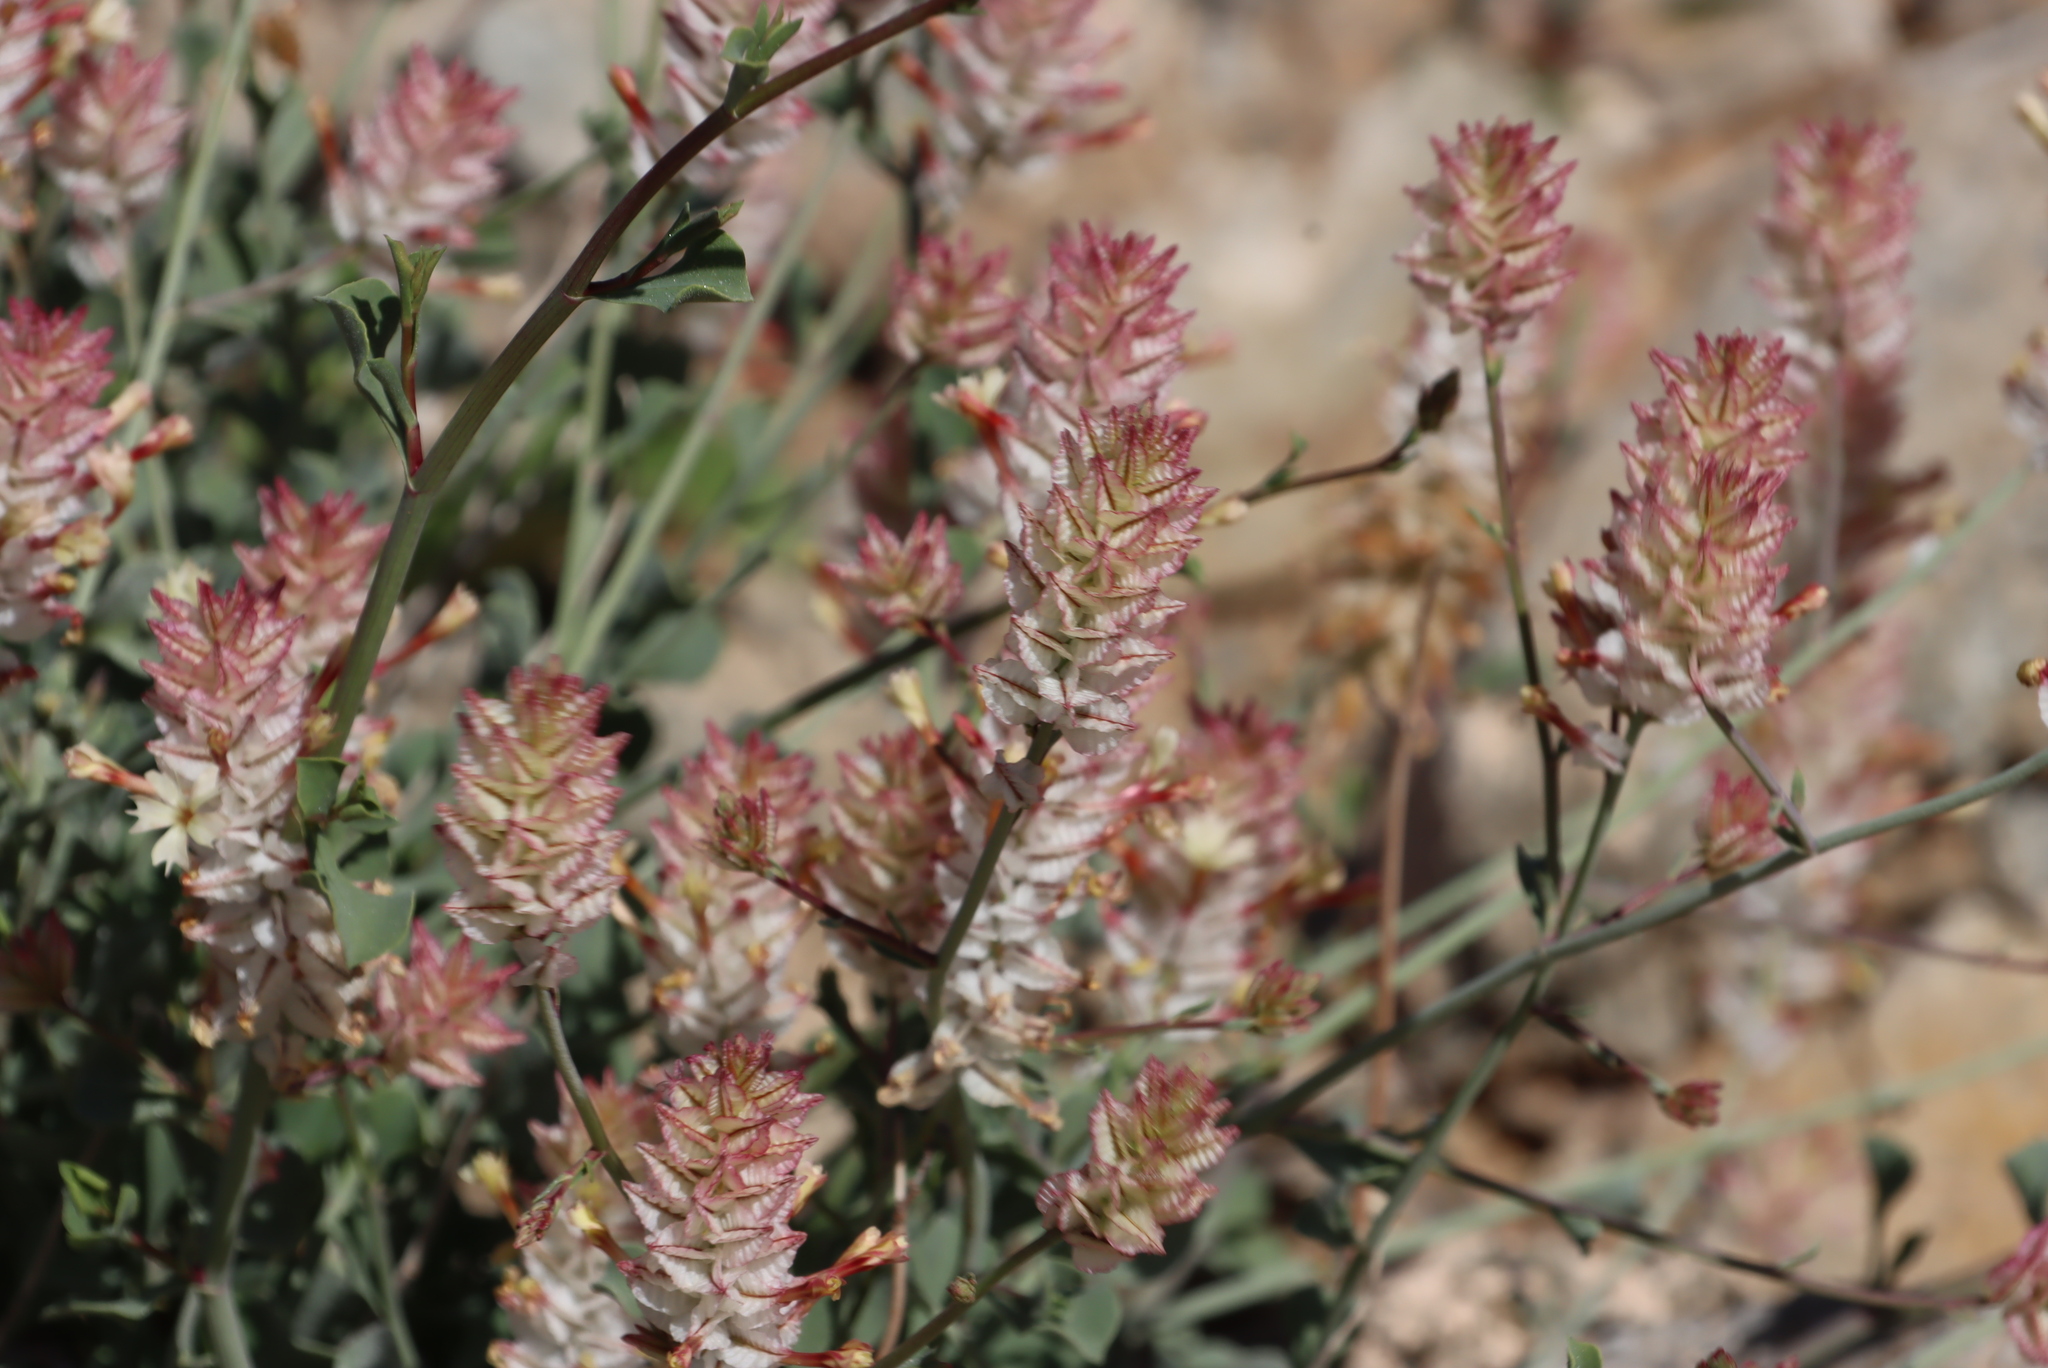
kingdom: Plantae
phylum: Tracheophyta
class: Magnoliopsida
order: Caryophyllales
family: Plumbaginaceae
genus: Dyerophytum
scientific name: Dyerophytum africanum
